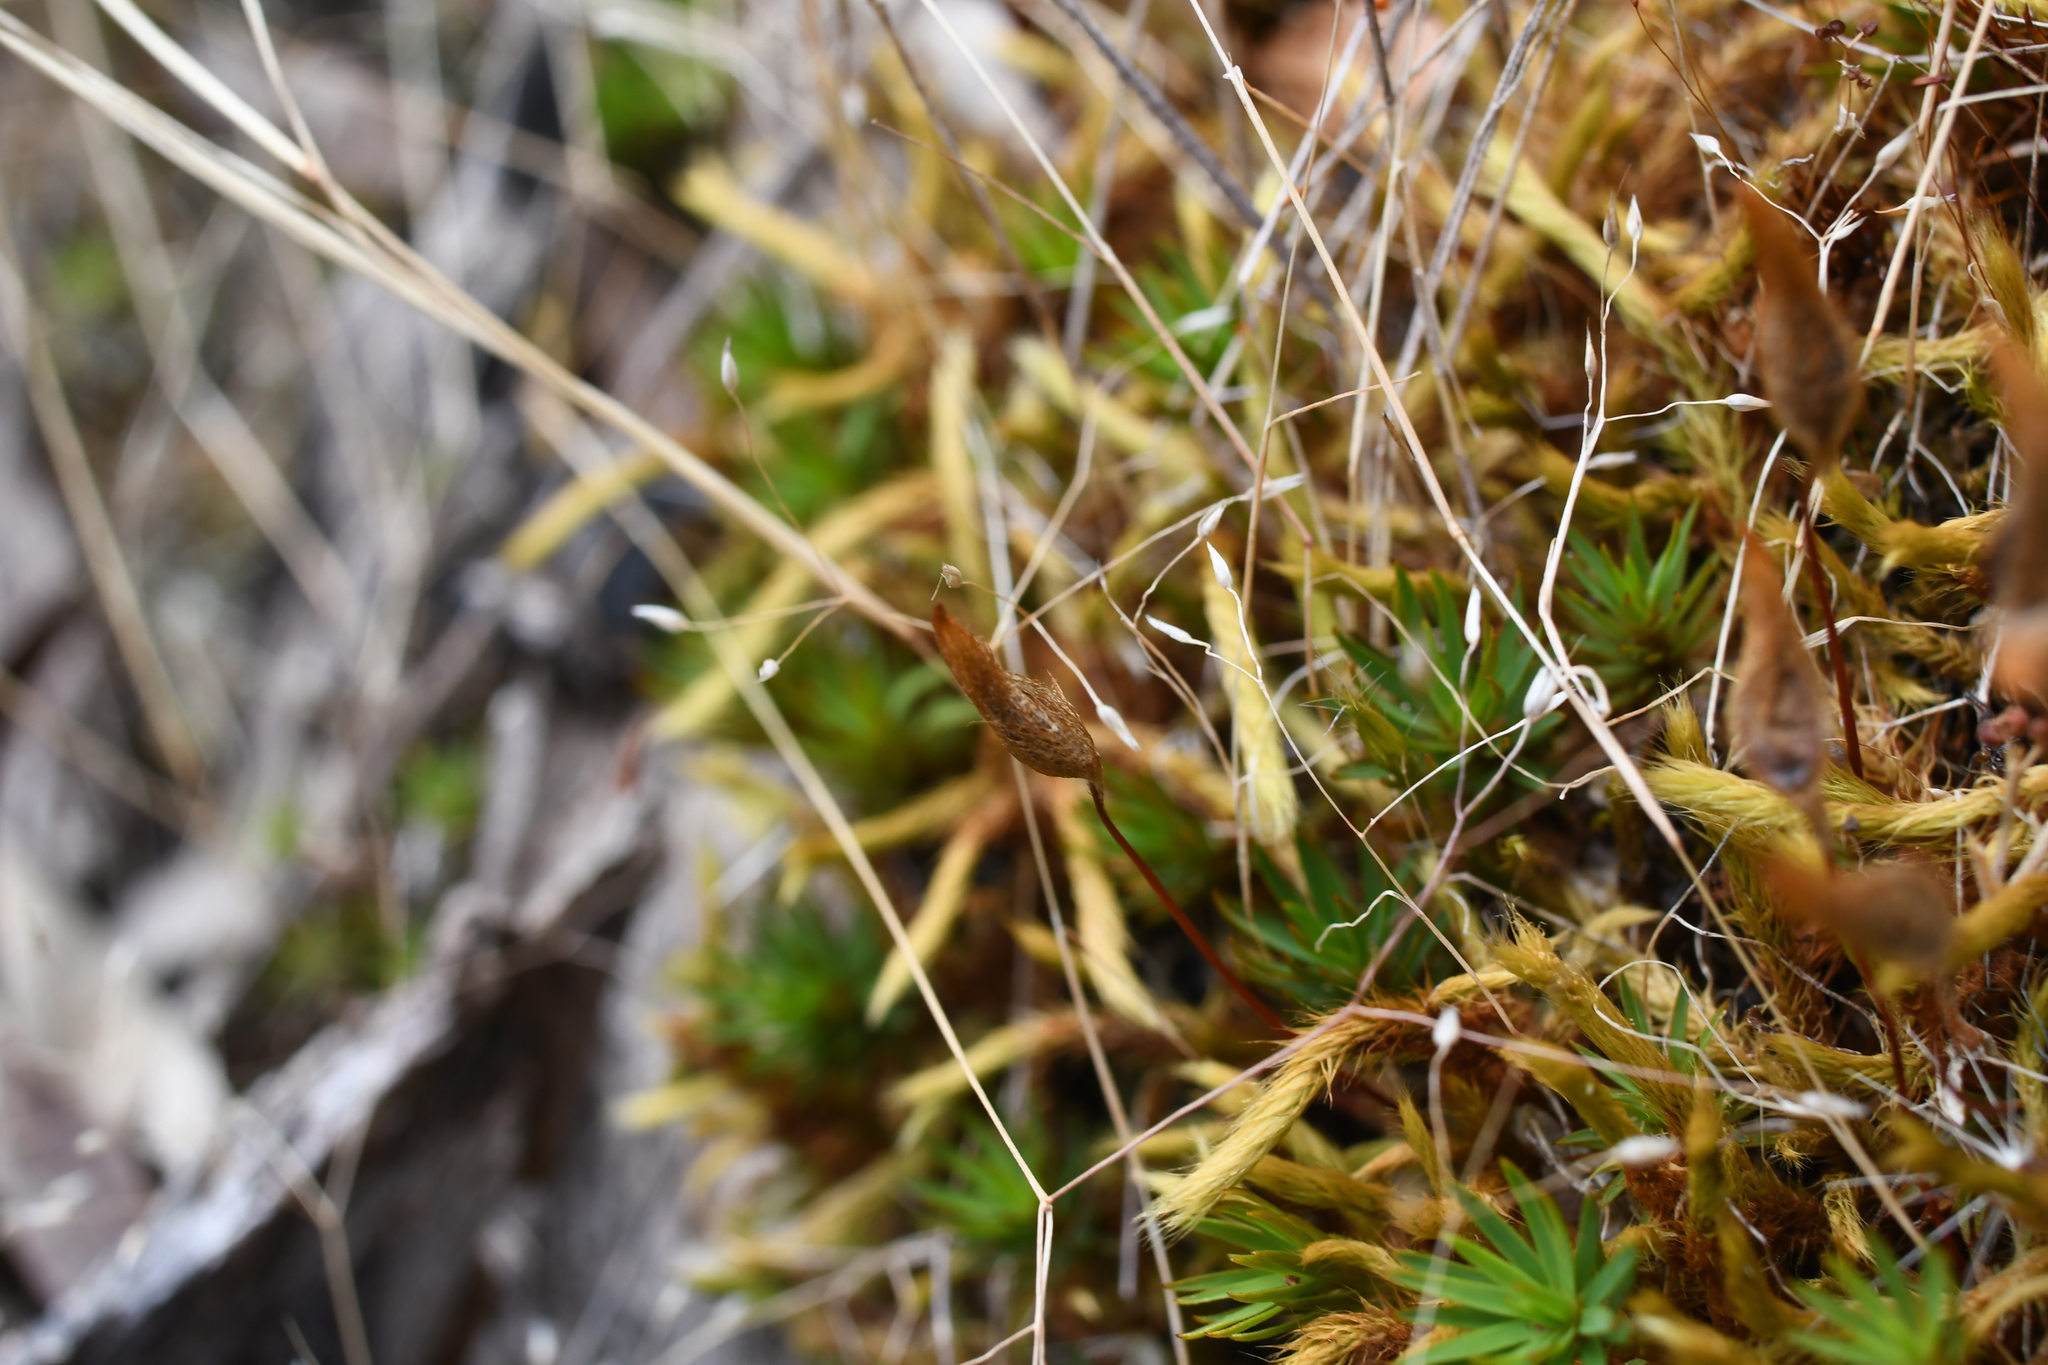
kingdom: Plantae
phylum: Bryophyta
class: Polytrichopsida
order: Polytrichales
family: Polytrichaceae
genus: Dawsonia
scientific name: Dawsonia longiseta
